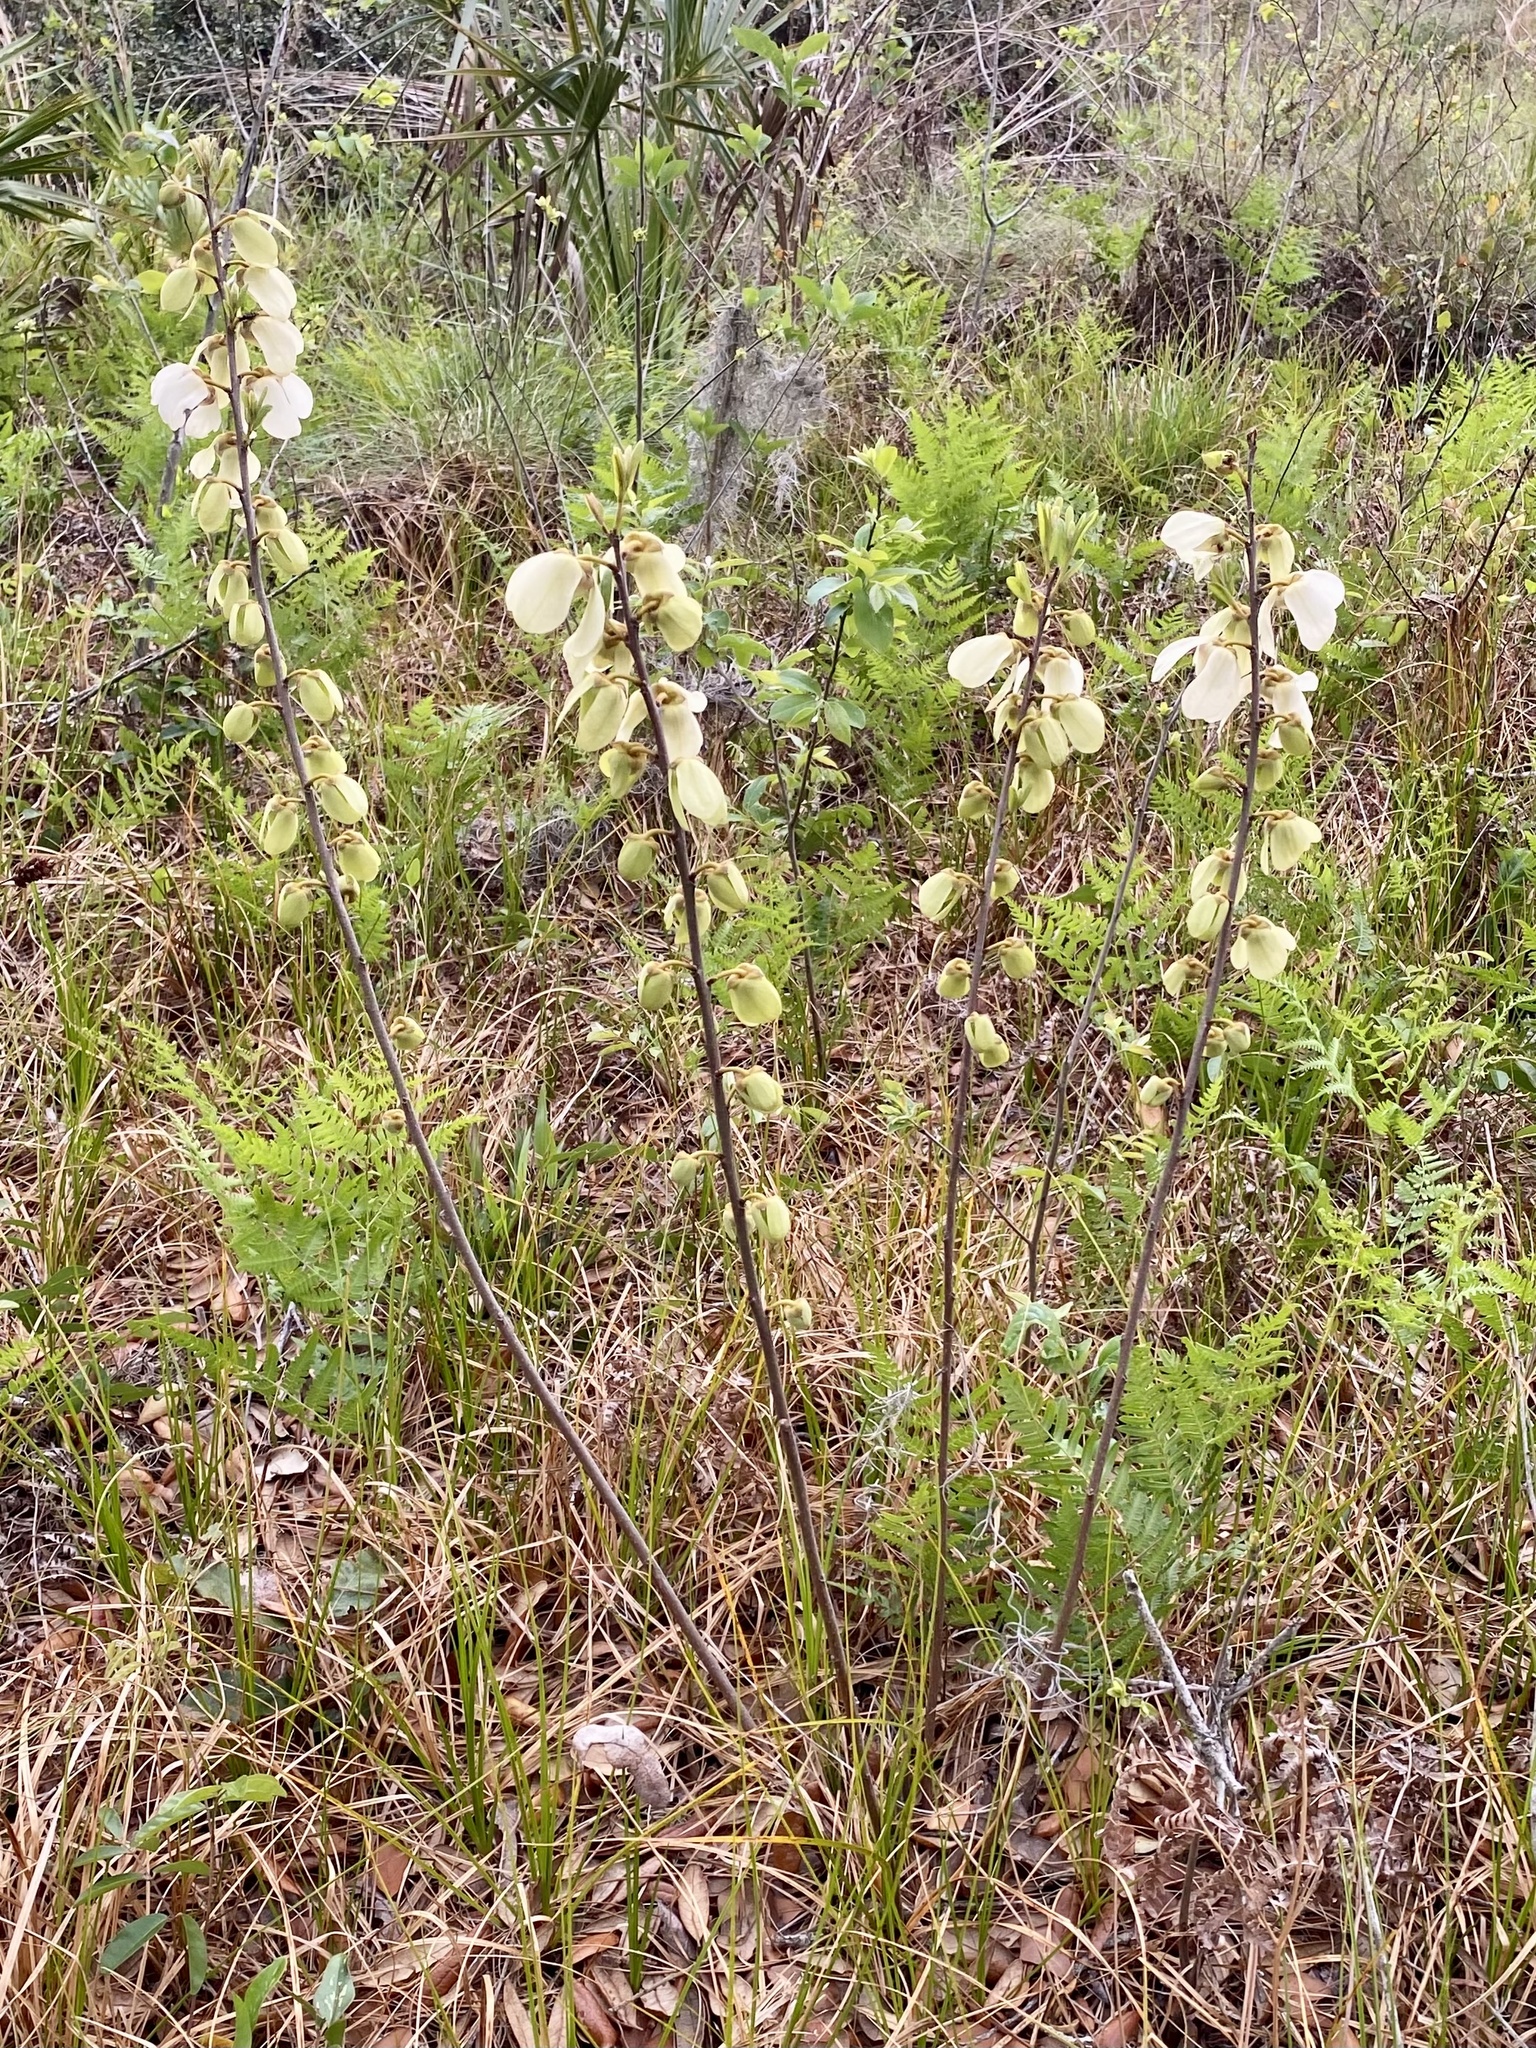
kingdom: Plantae
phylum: Tracheophyta
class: Magnoliopsida
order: Magnoliales
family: Annonaceae
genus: Asimina
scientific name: Asimina reticulata
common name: Flag pawpaw
